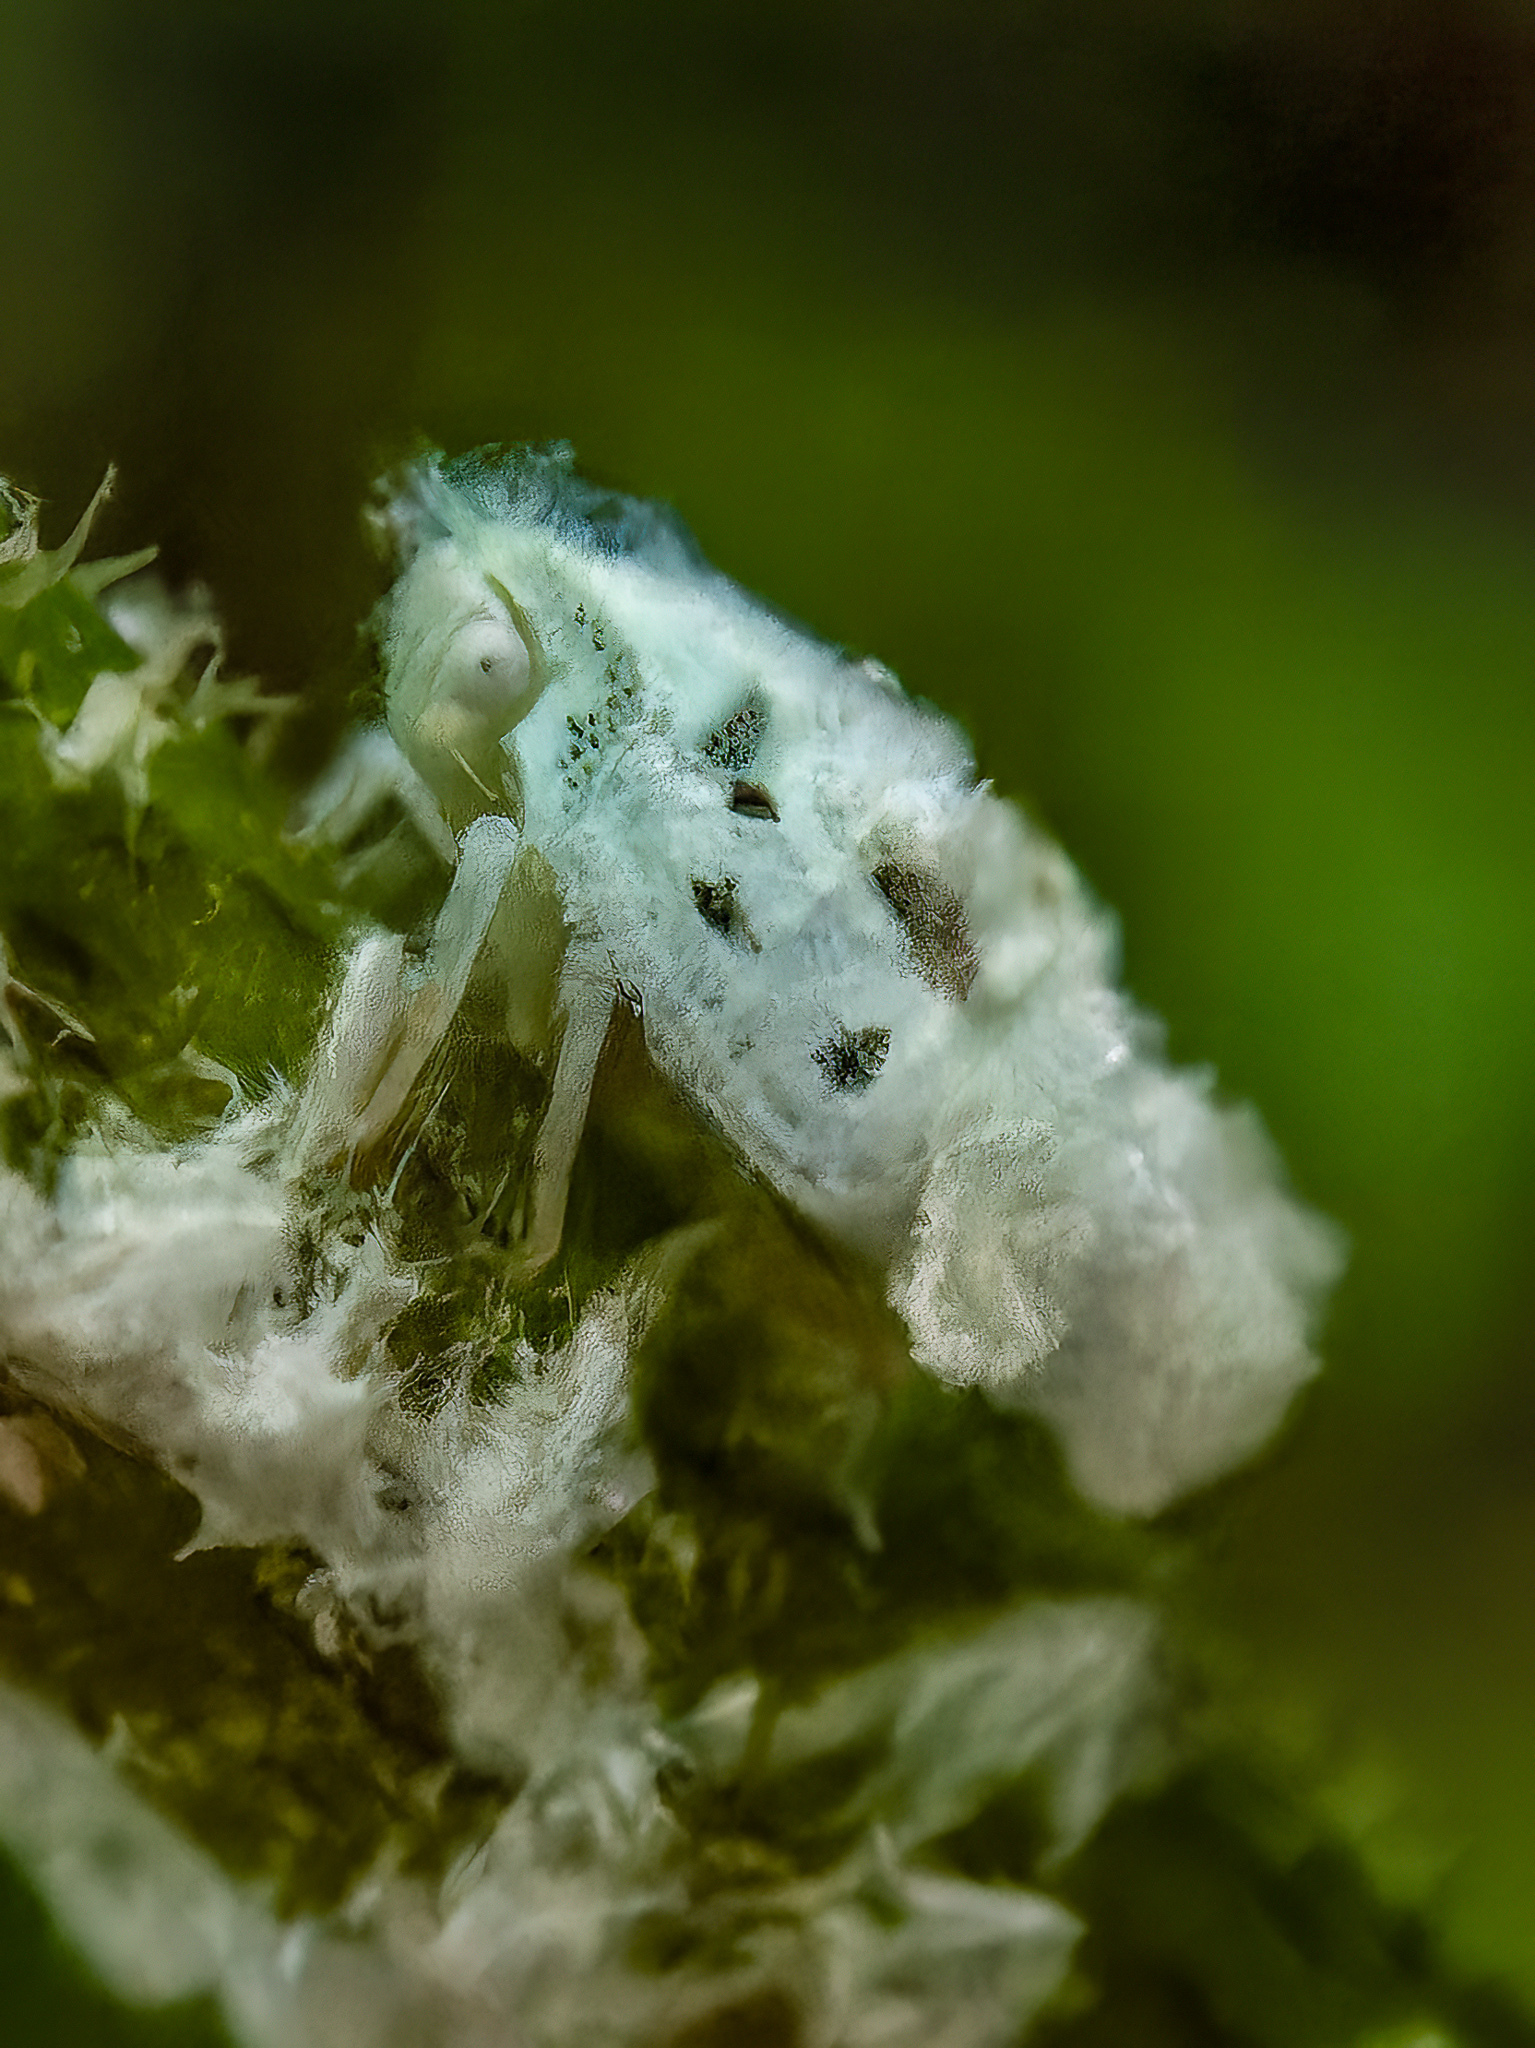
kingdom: Animalia
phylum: Arthropoda
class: Insecta
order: Hemiptera
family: Flatidae
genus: Flatormenis
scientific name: Flatormenis proxima
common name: Northern flatid planthopper
